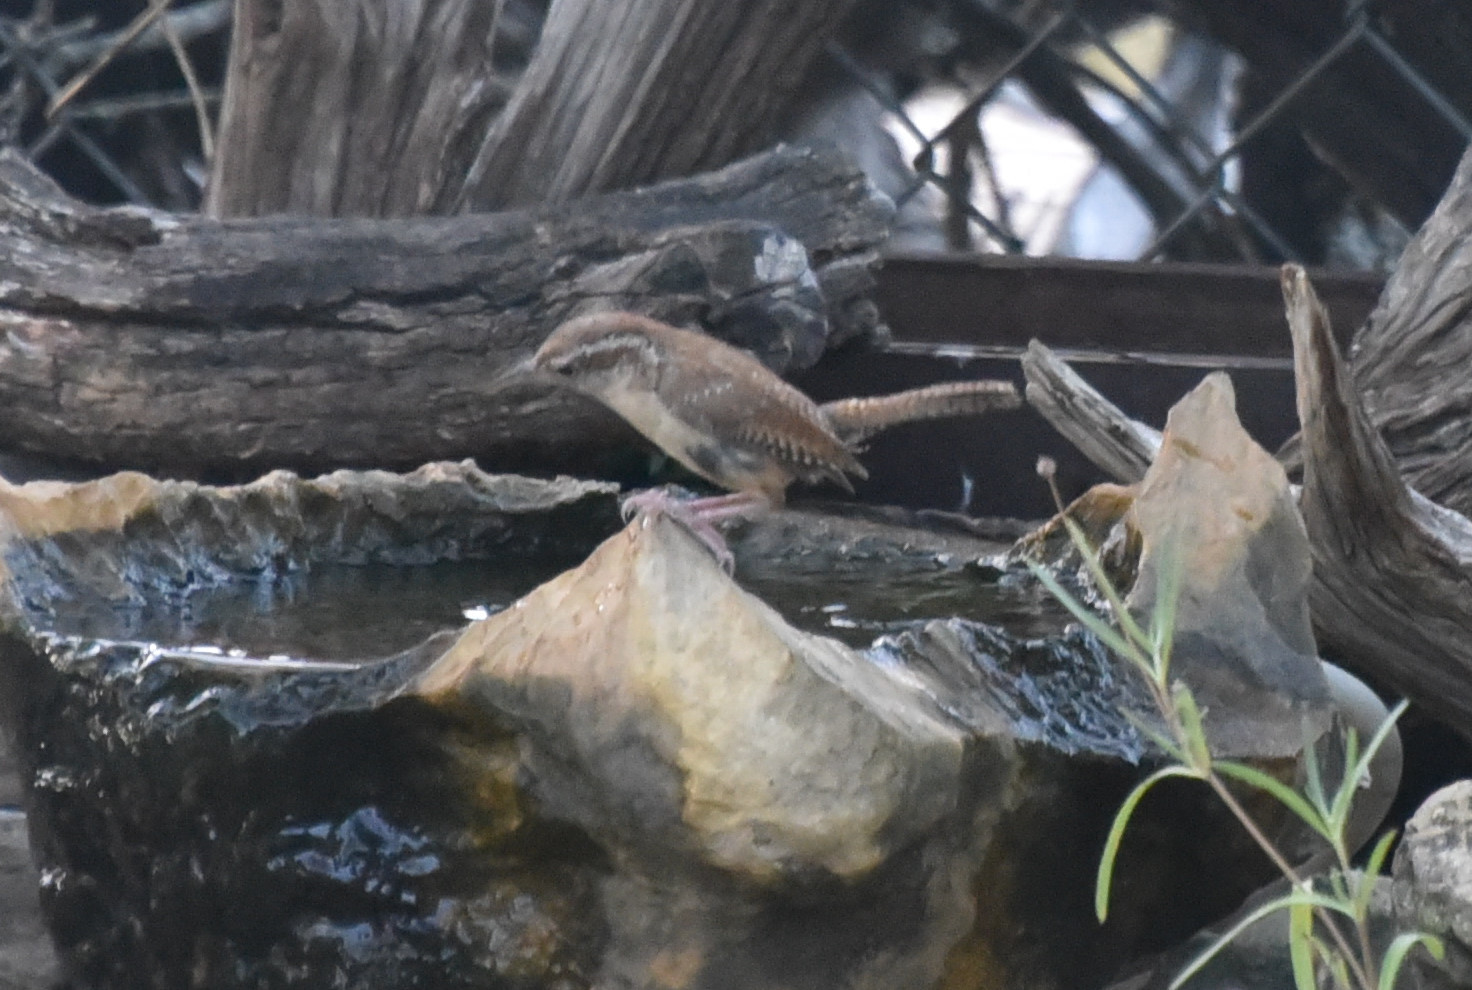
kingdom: Animalia
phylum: Chordata
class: Aves
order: Passeriformes
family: Troglodytidae
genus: Thryothorus
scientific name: Thryothorus ludovicianus
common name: Carolina wren
